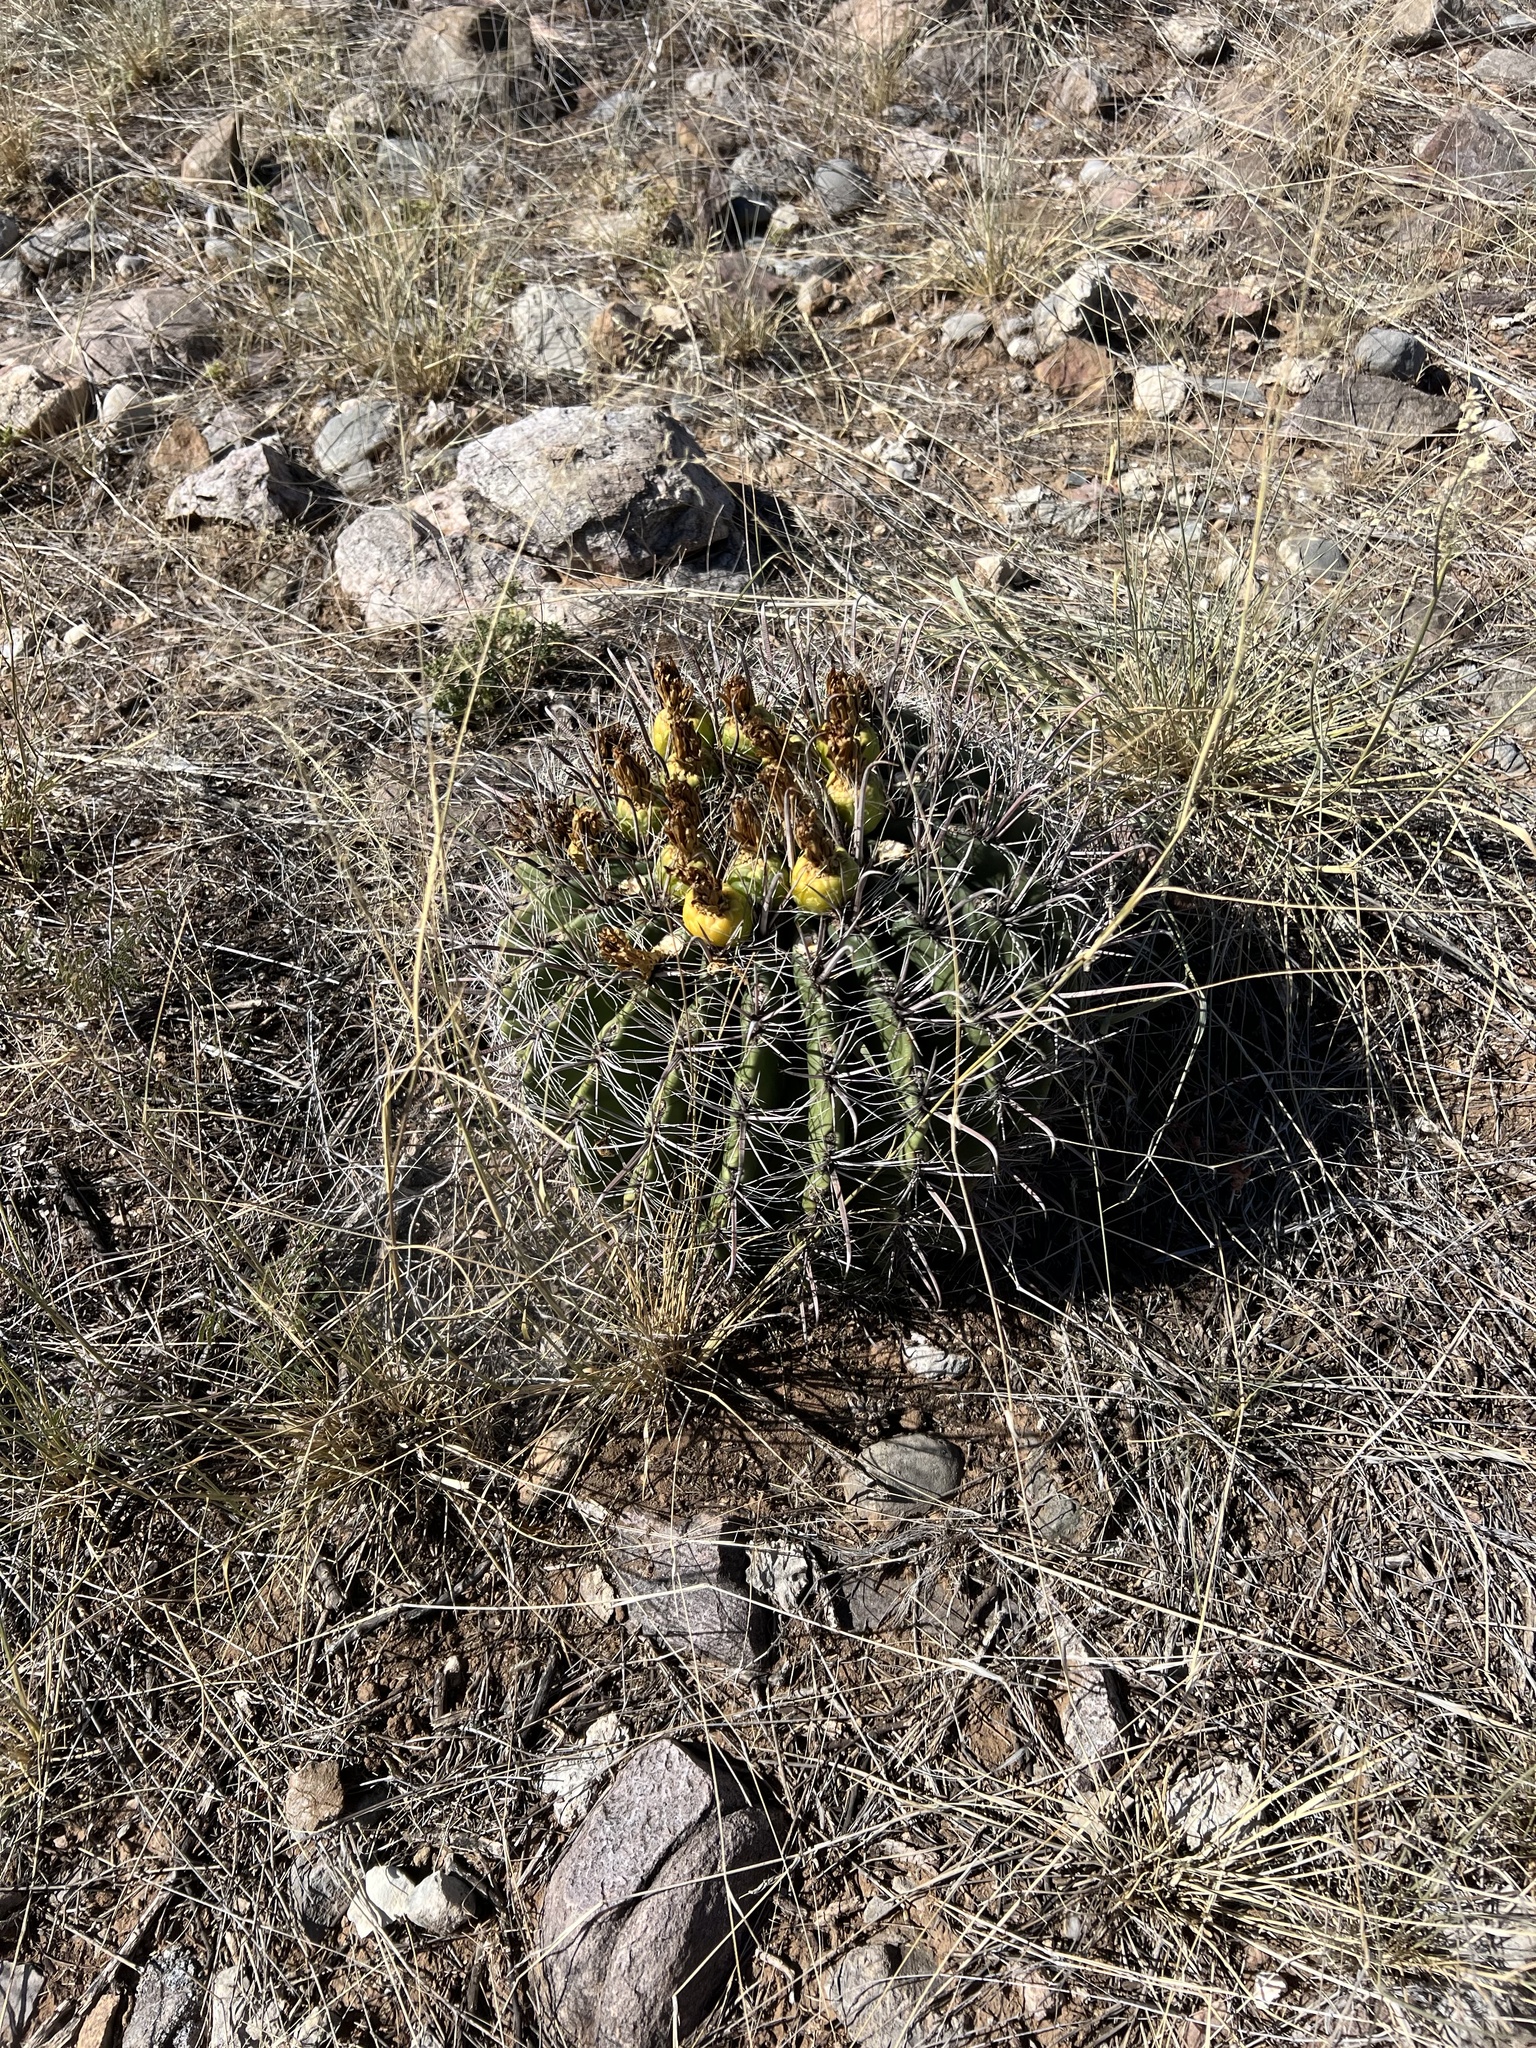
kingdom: Plantae
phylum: Tracheophyta
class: Magnoliopsida
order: Caryophyllales
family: Cactaceae
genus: Ferocactus
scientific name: Ferocactus wislizeni
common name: Candy barrel cactus
